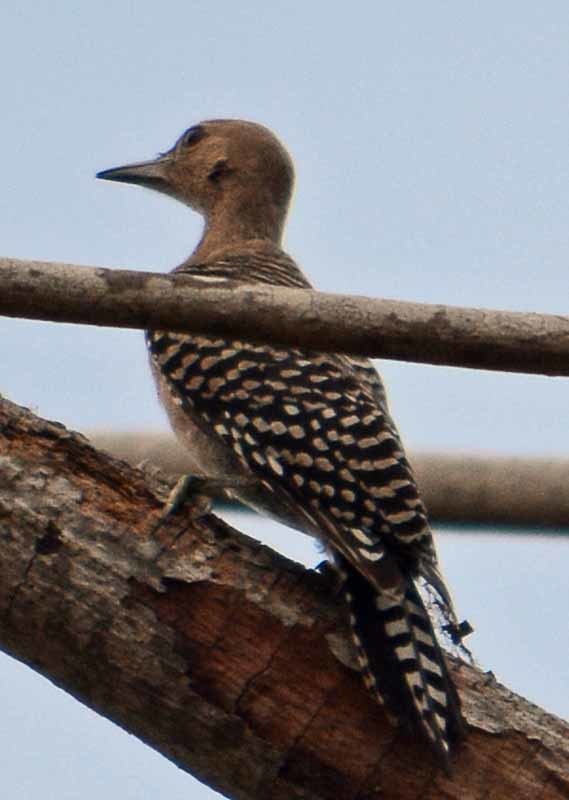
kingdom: Animalia
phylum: Chordata
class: Aves
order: Piciformes
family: Picidae
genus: Melanerpes
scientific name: Melanerpes uropygialis
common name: Gila woodpecker
